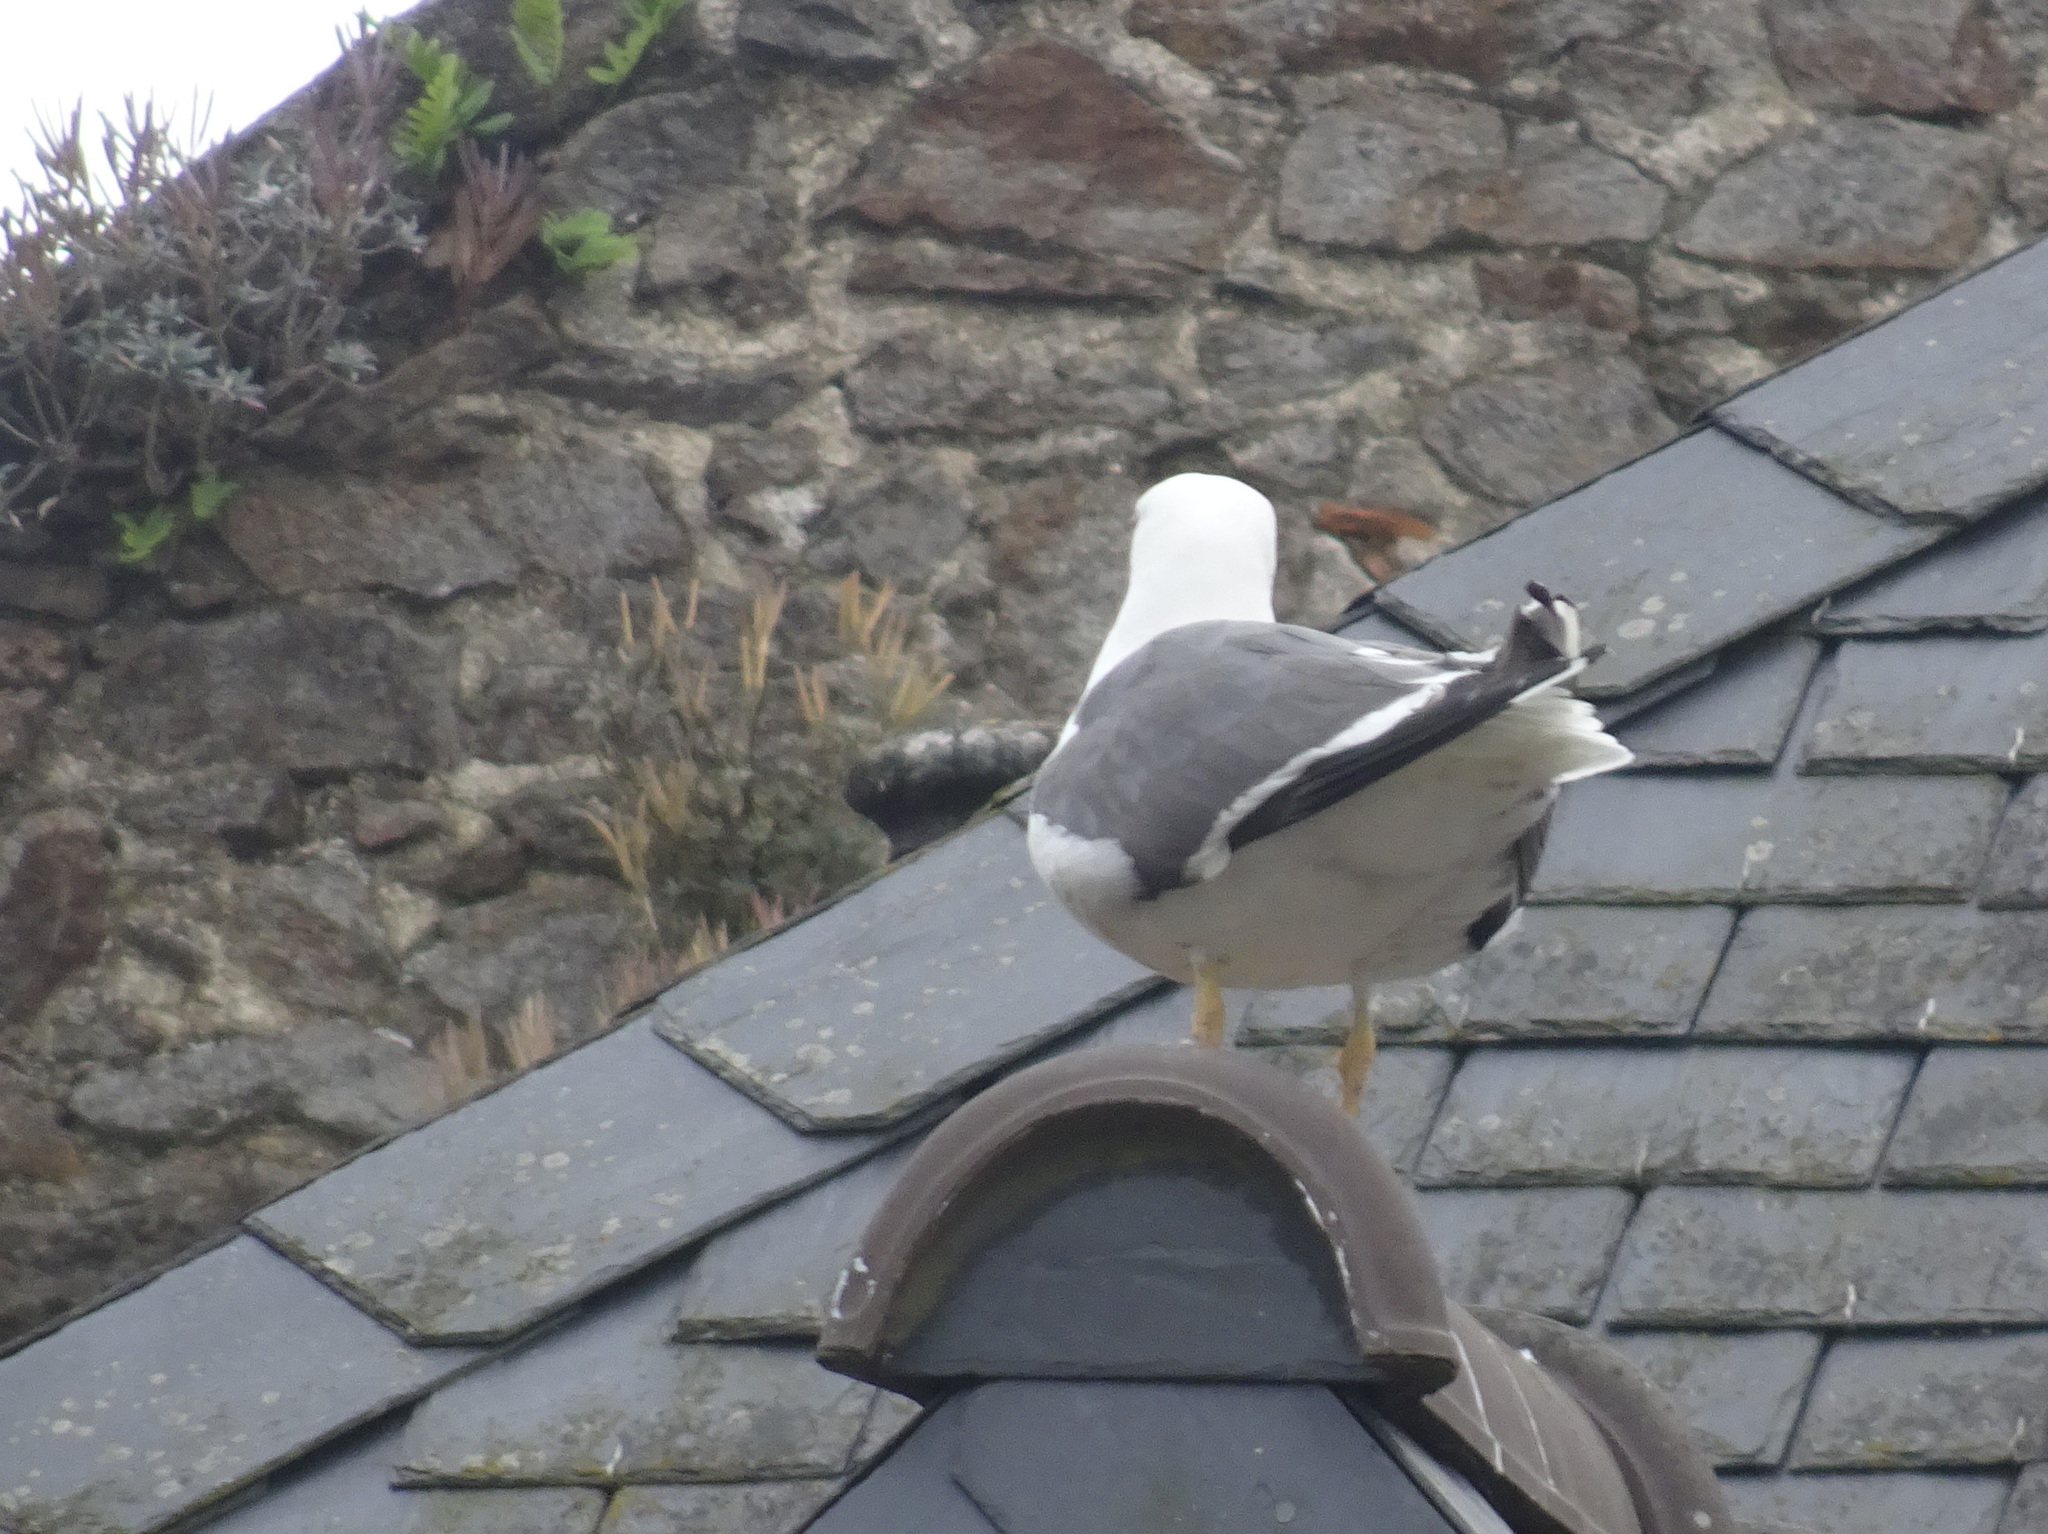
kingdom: Animalia
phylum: Chordata
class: Aves
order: Charadriiformes
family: Laridae
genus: Larus
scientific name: Larus fuscus
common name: Lesser black-backed gull
